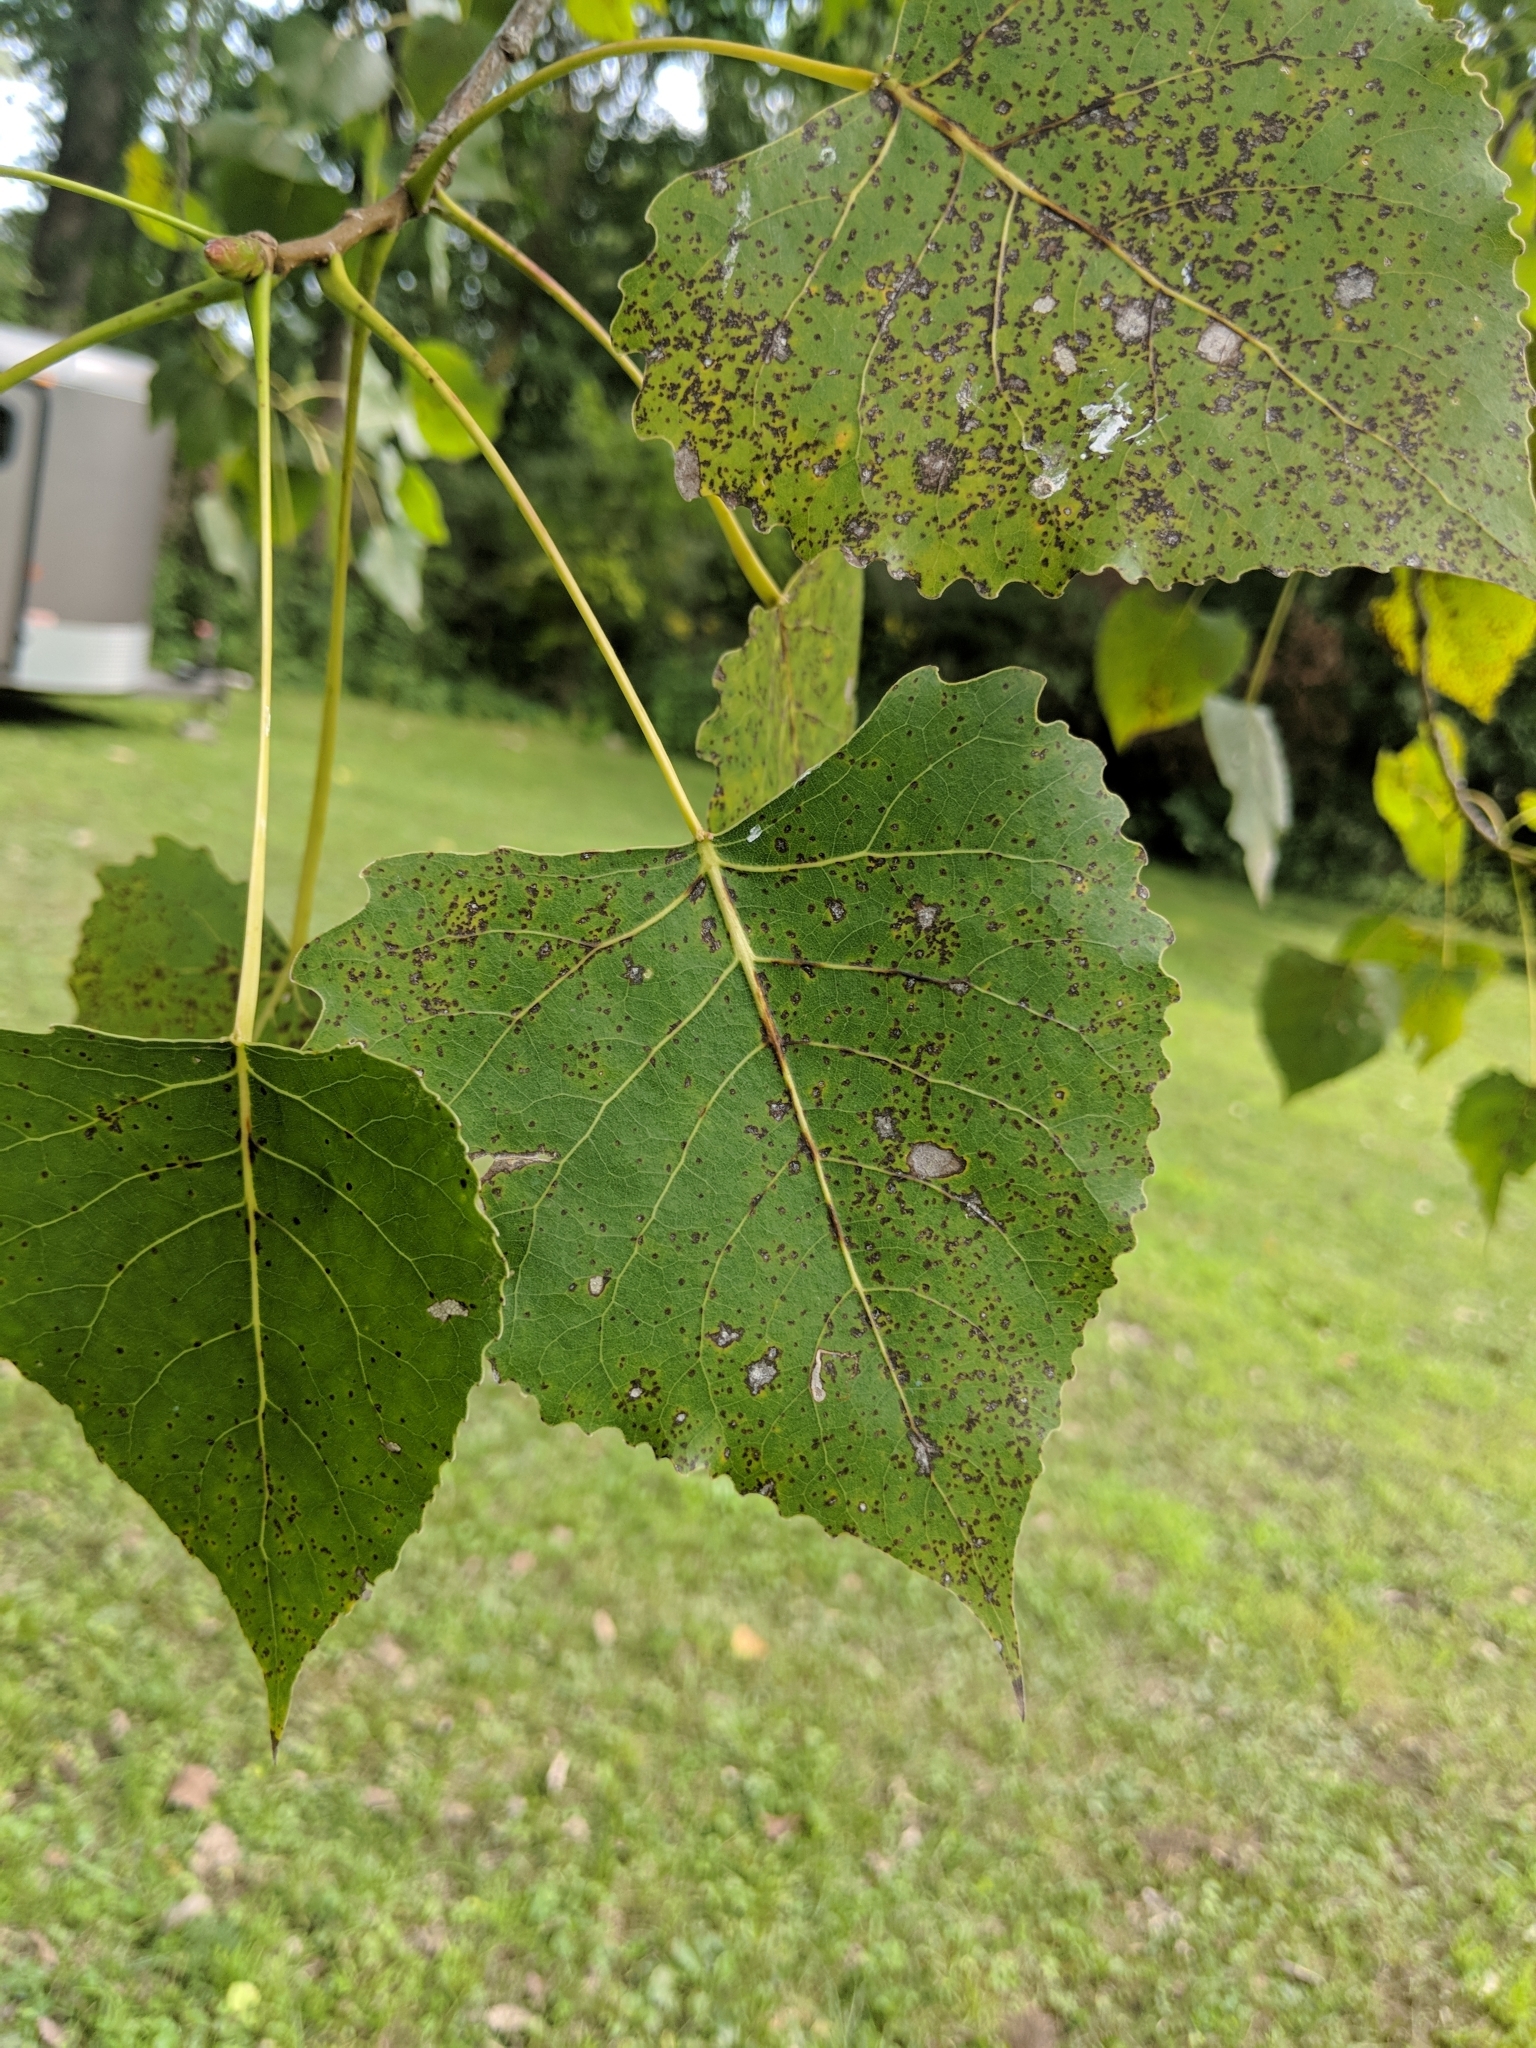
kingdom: Plantae
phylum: Tracheophyta
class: Magnoliopsida
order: Malpighiales
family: Salicaceae
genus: Populus
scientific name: Populus deltoides
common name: Eastern cottonwood
